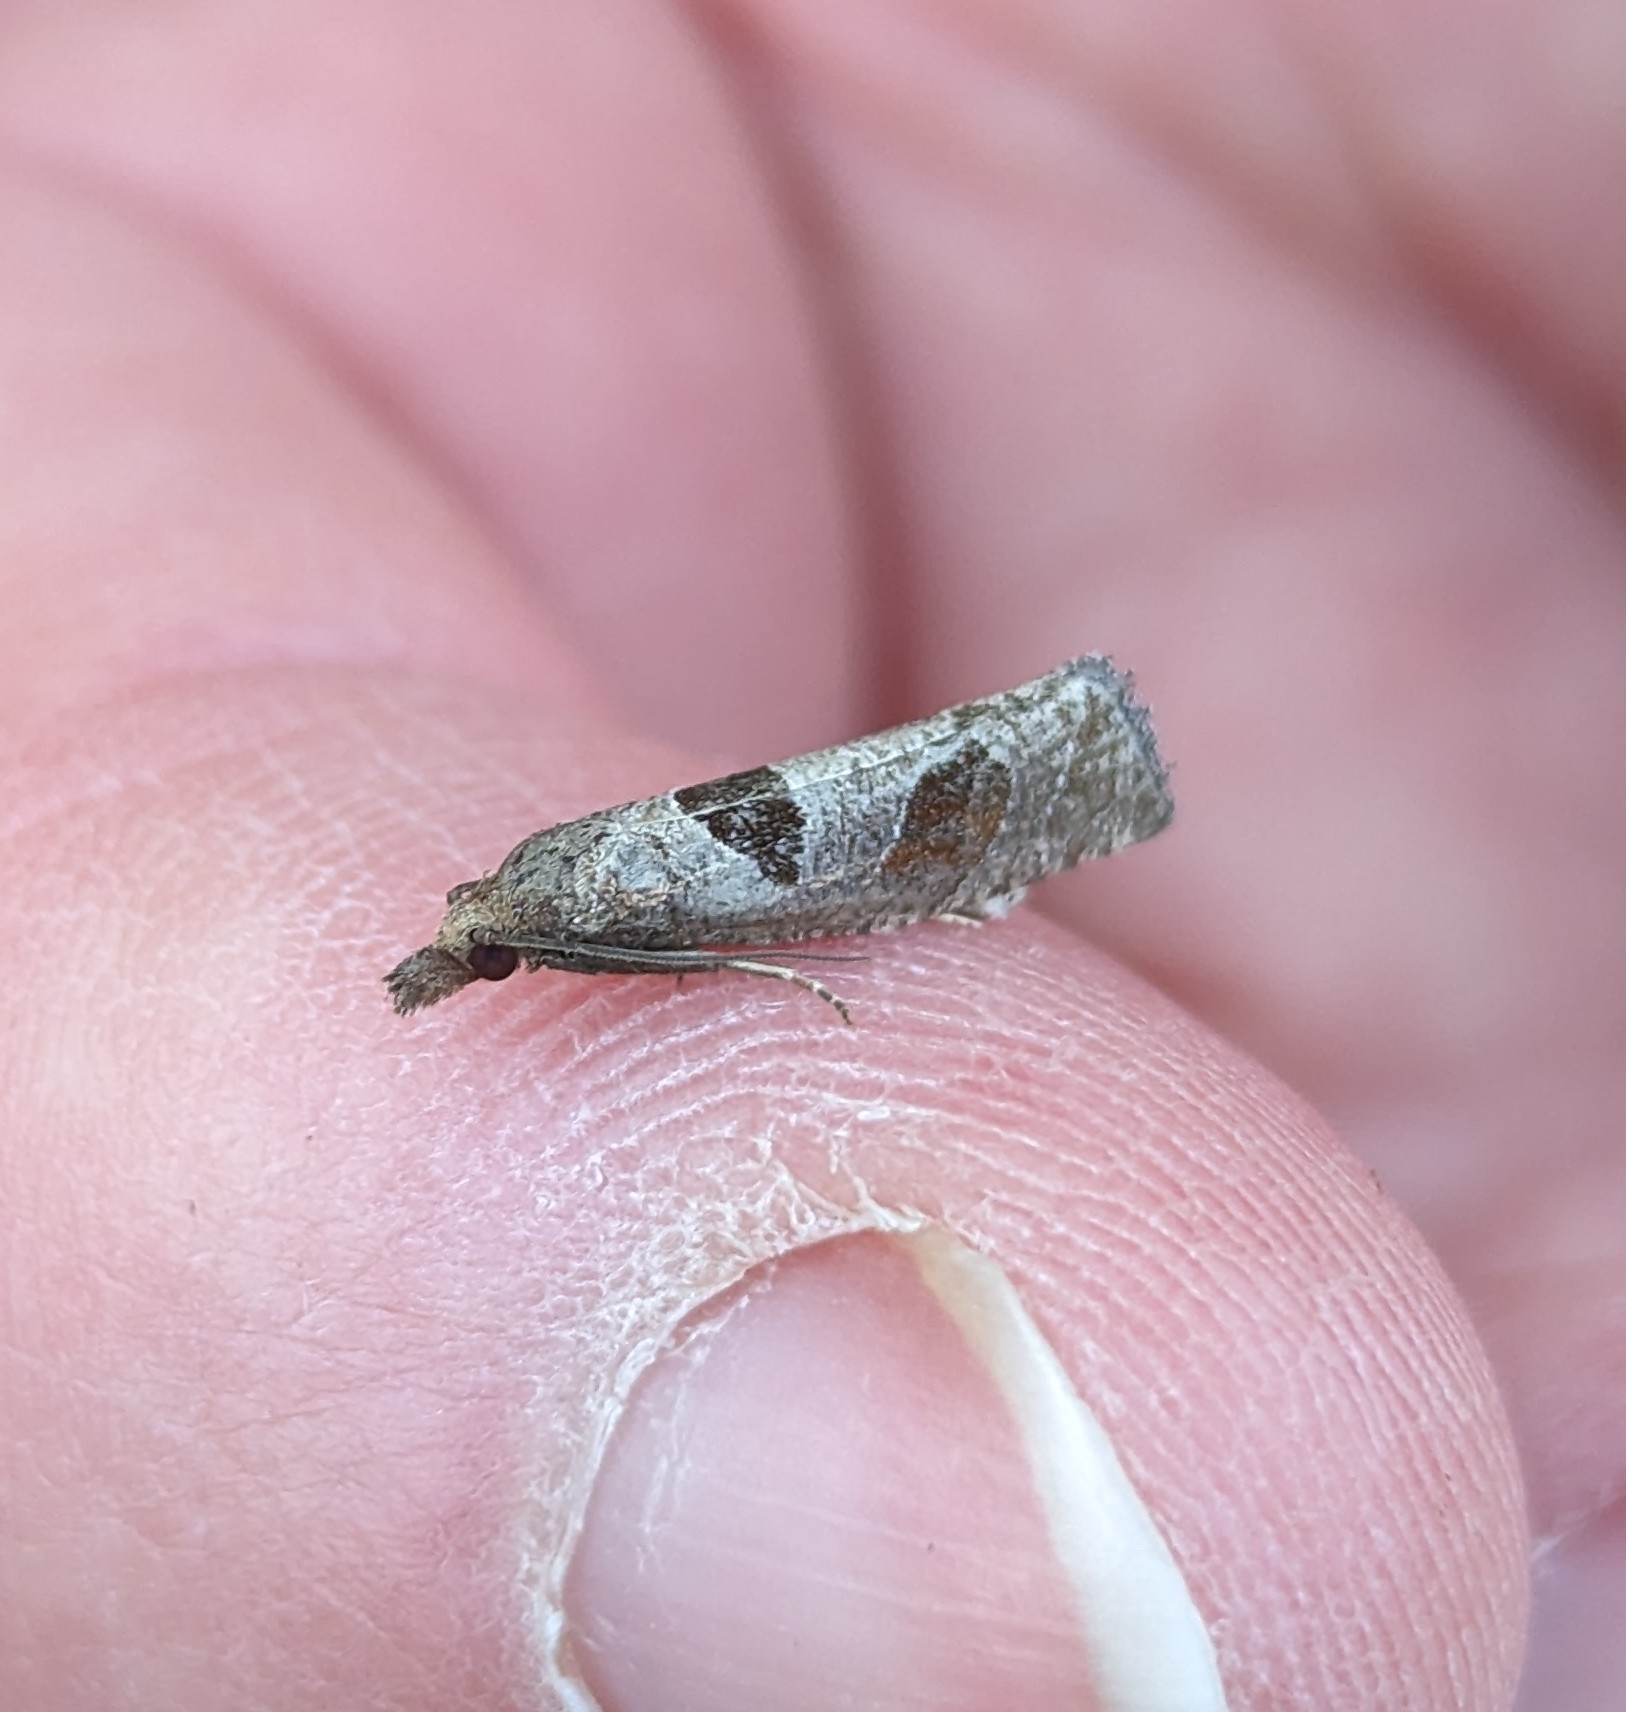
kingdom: Animalia
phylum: Arthropoda
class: Insecta
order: Lepidoptera
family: Tortricidae
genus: Pelochrista
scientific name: Pelochrista dorsisignatana
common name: Triangle-backed pelochrista moth
